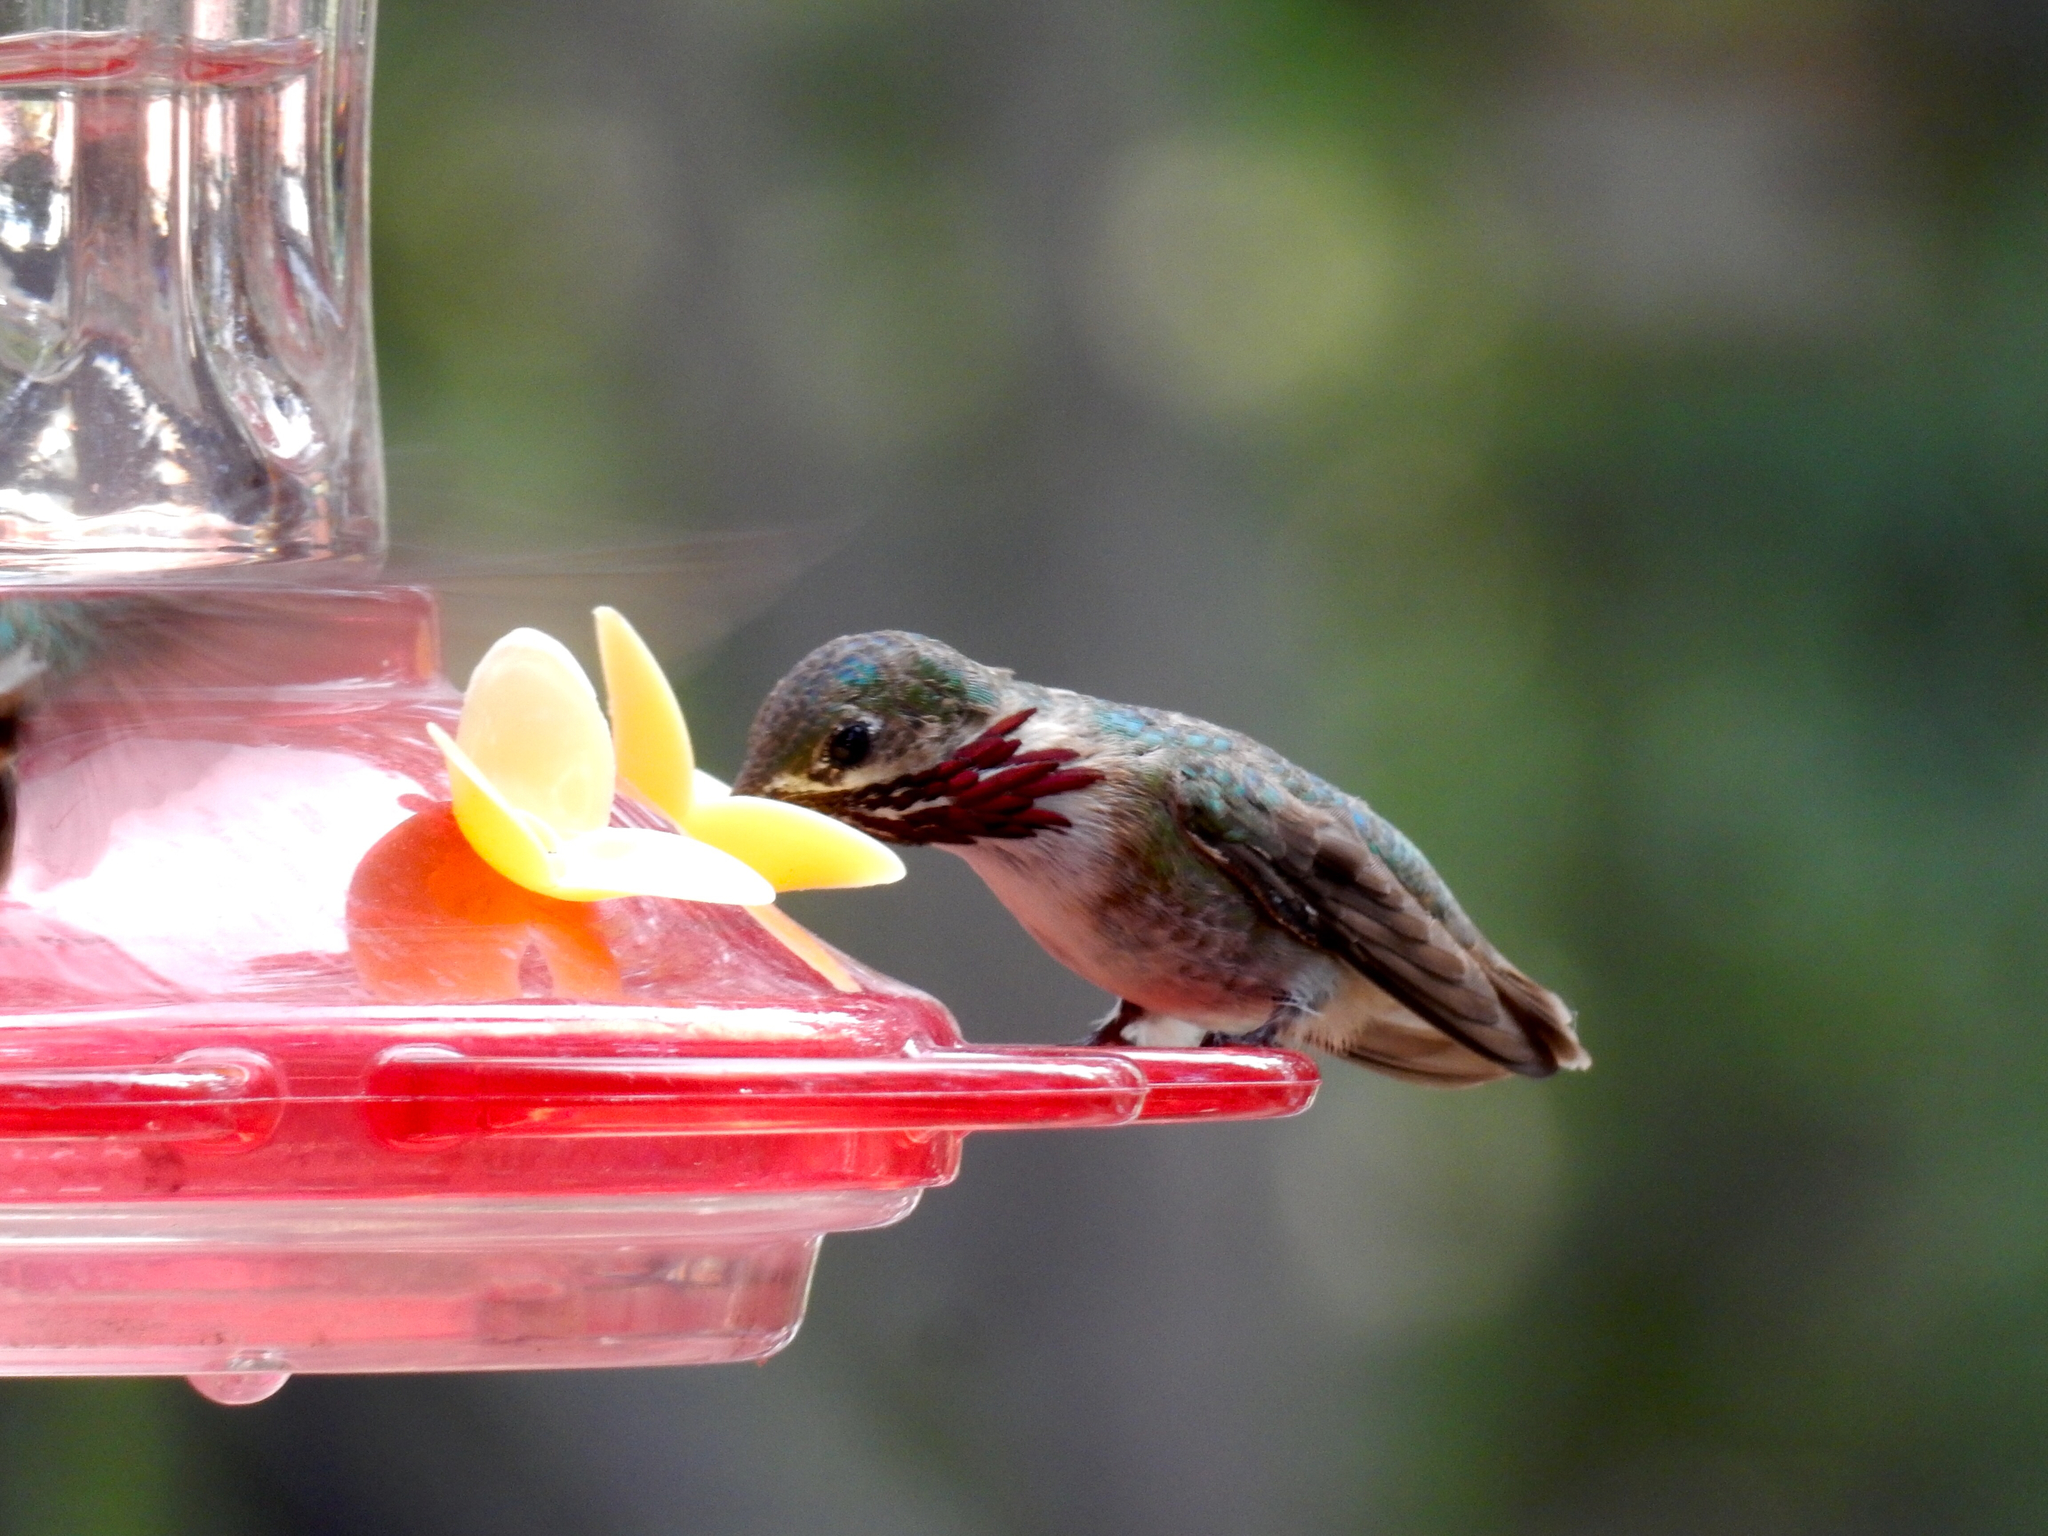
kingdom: Animalia
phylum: Chordata
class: Aves
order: Apodiformes
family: Trochilidae
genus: Selasphorus
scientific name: Selasphorus calliope
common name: Calliope hummingbird
